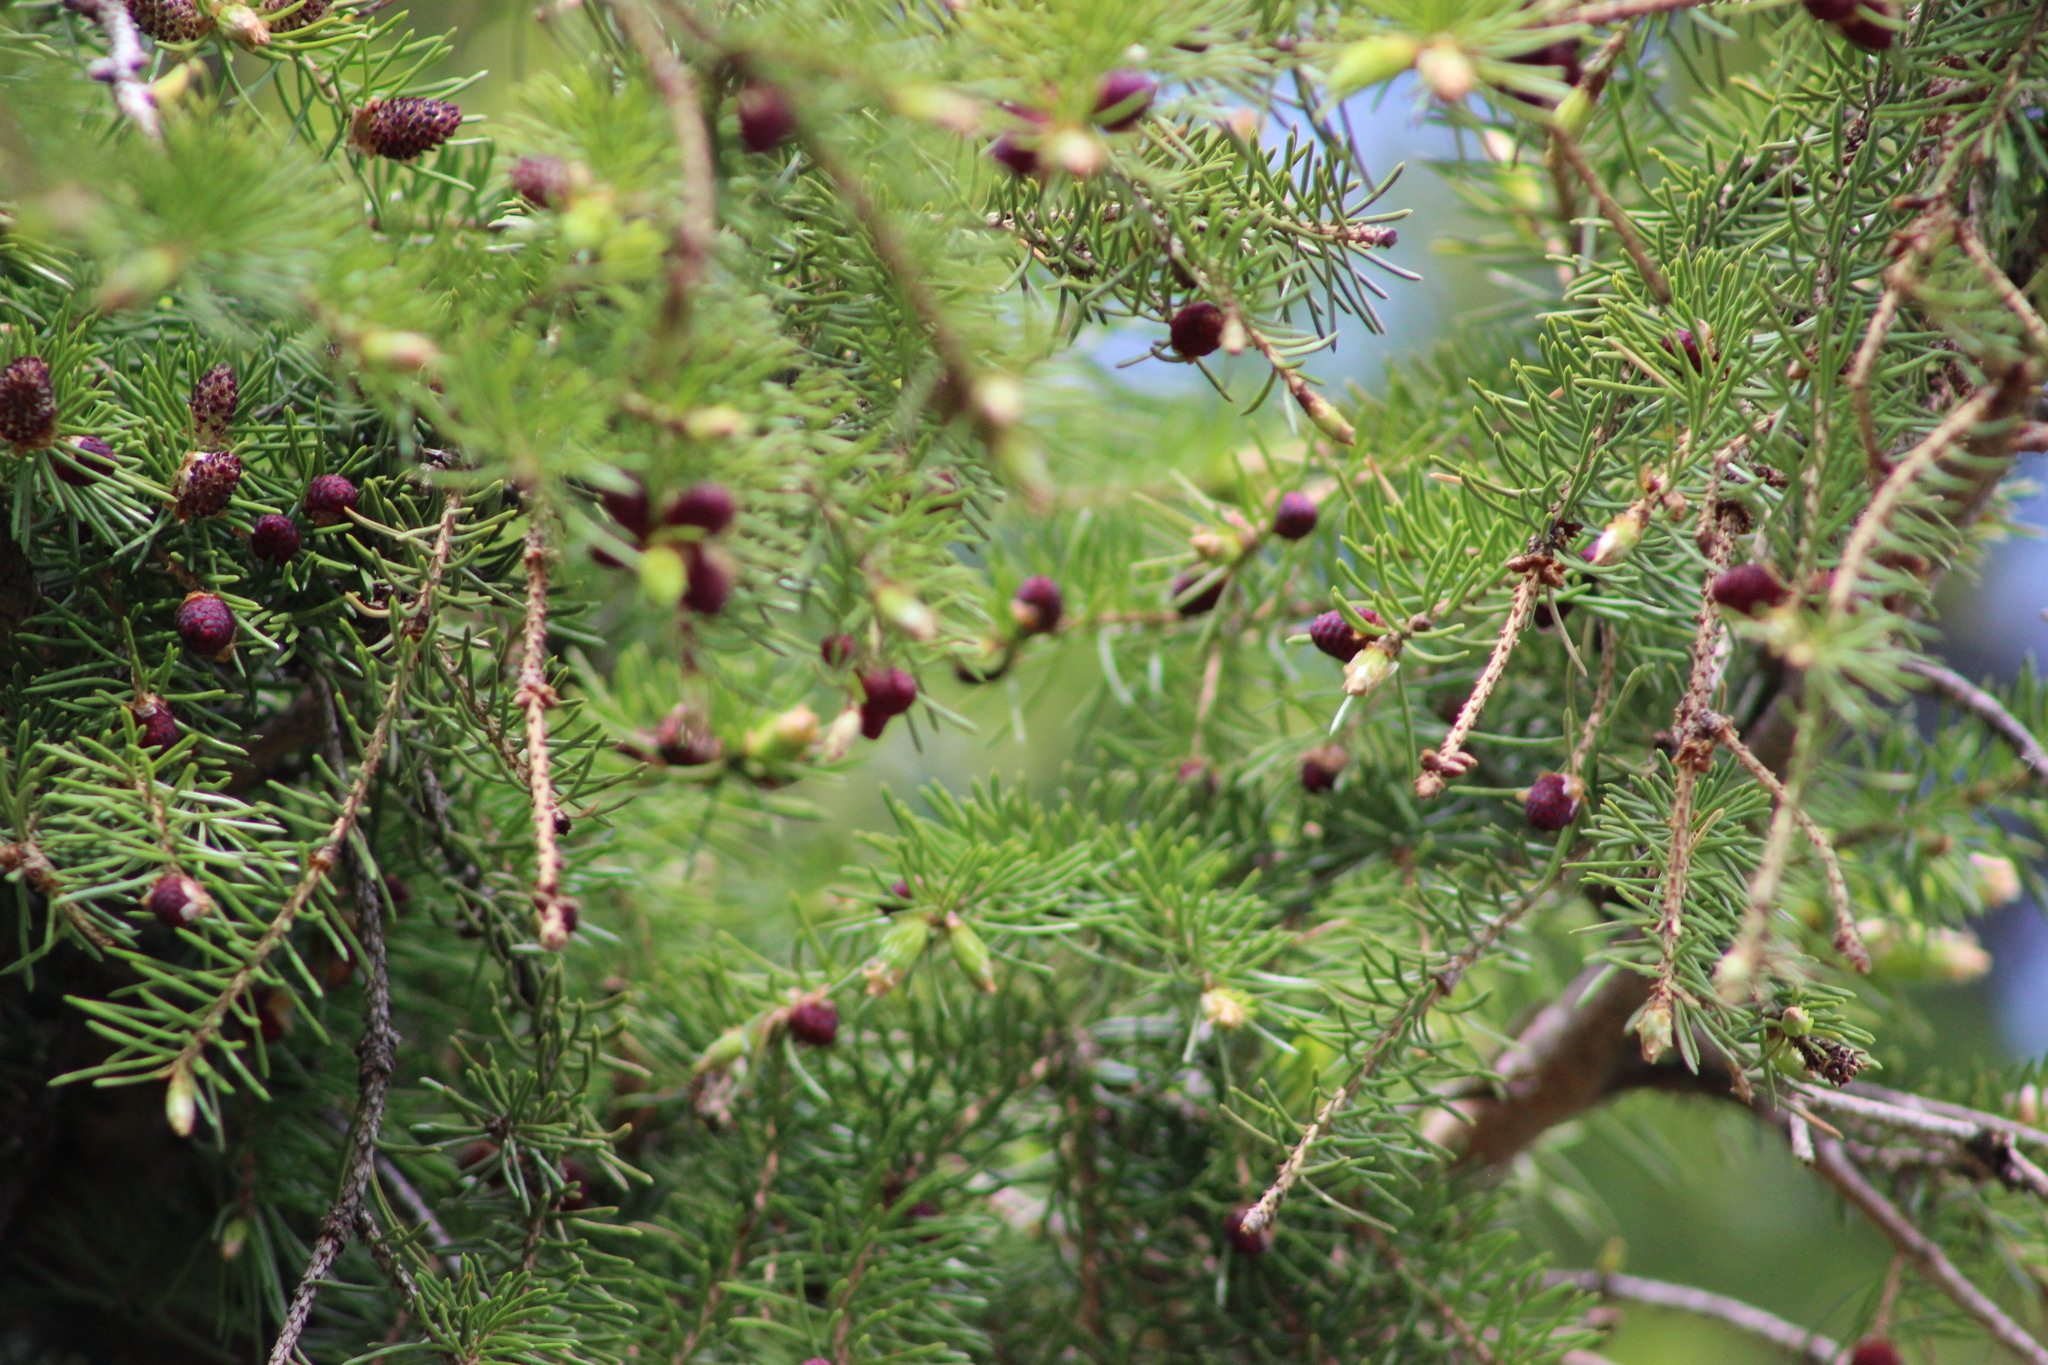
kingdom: Plantae
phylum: Tracheophyta
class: Pinopsida
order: Pinales
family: Pinaceae
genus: Picea
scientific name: Picea obovata
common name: Siberian spruce
